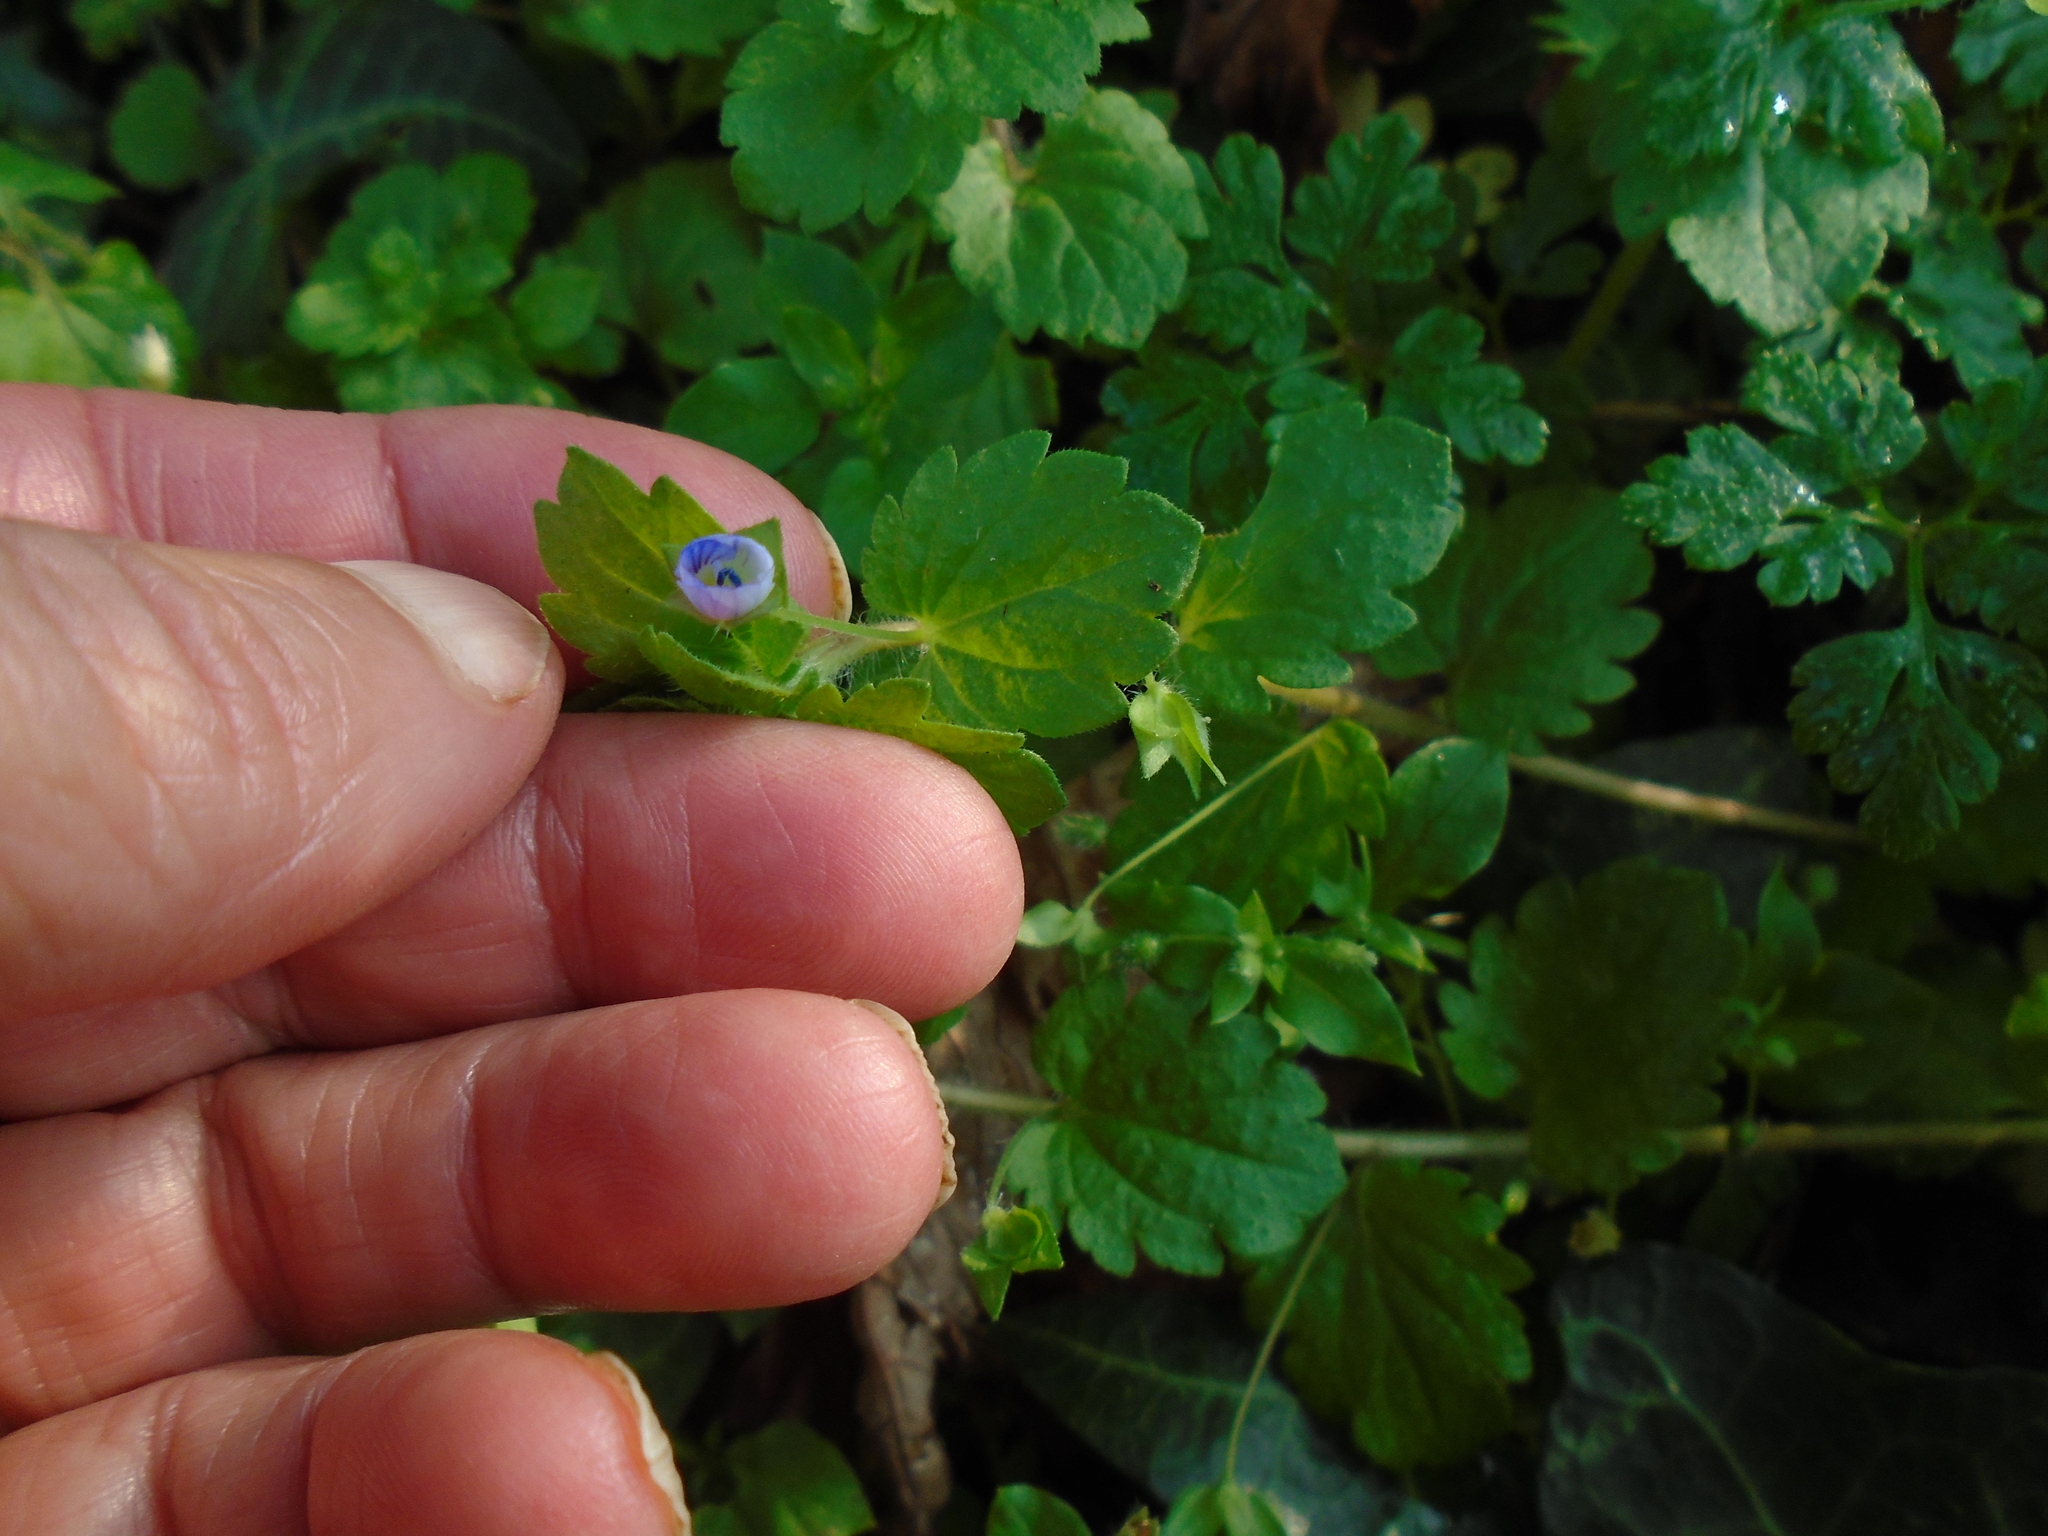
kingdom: Plantae
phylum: Tracheophyta
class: Magnoliopsida
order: Lamiales
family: Plantaginaceae
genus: Veronica
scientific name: Veronica persica
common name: Common field-speedwell
